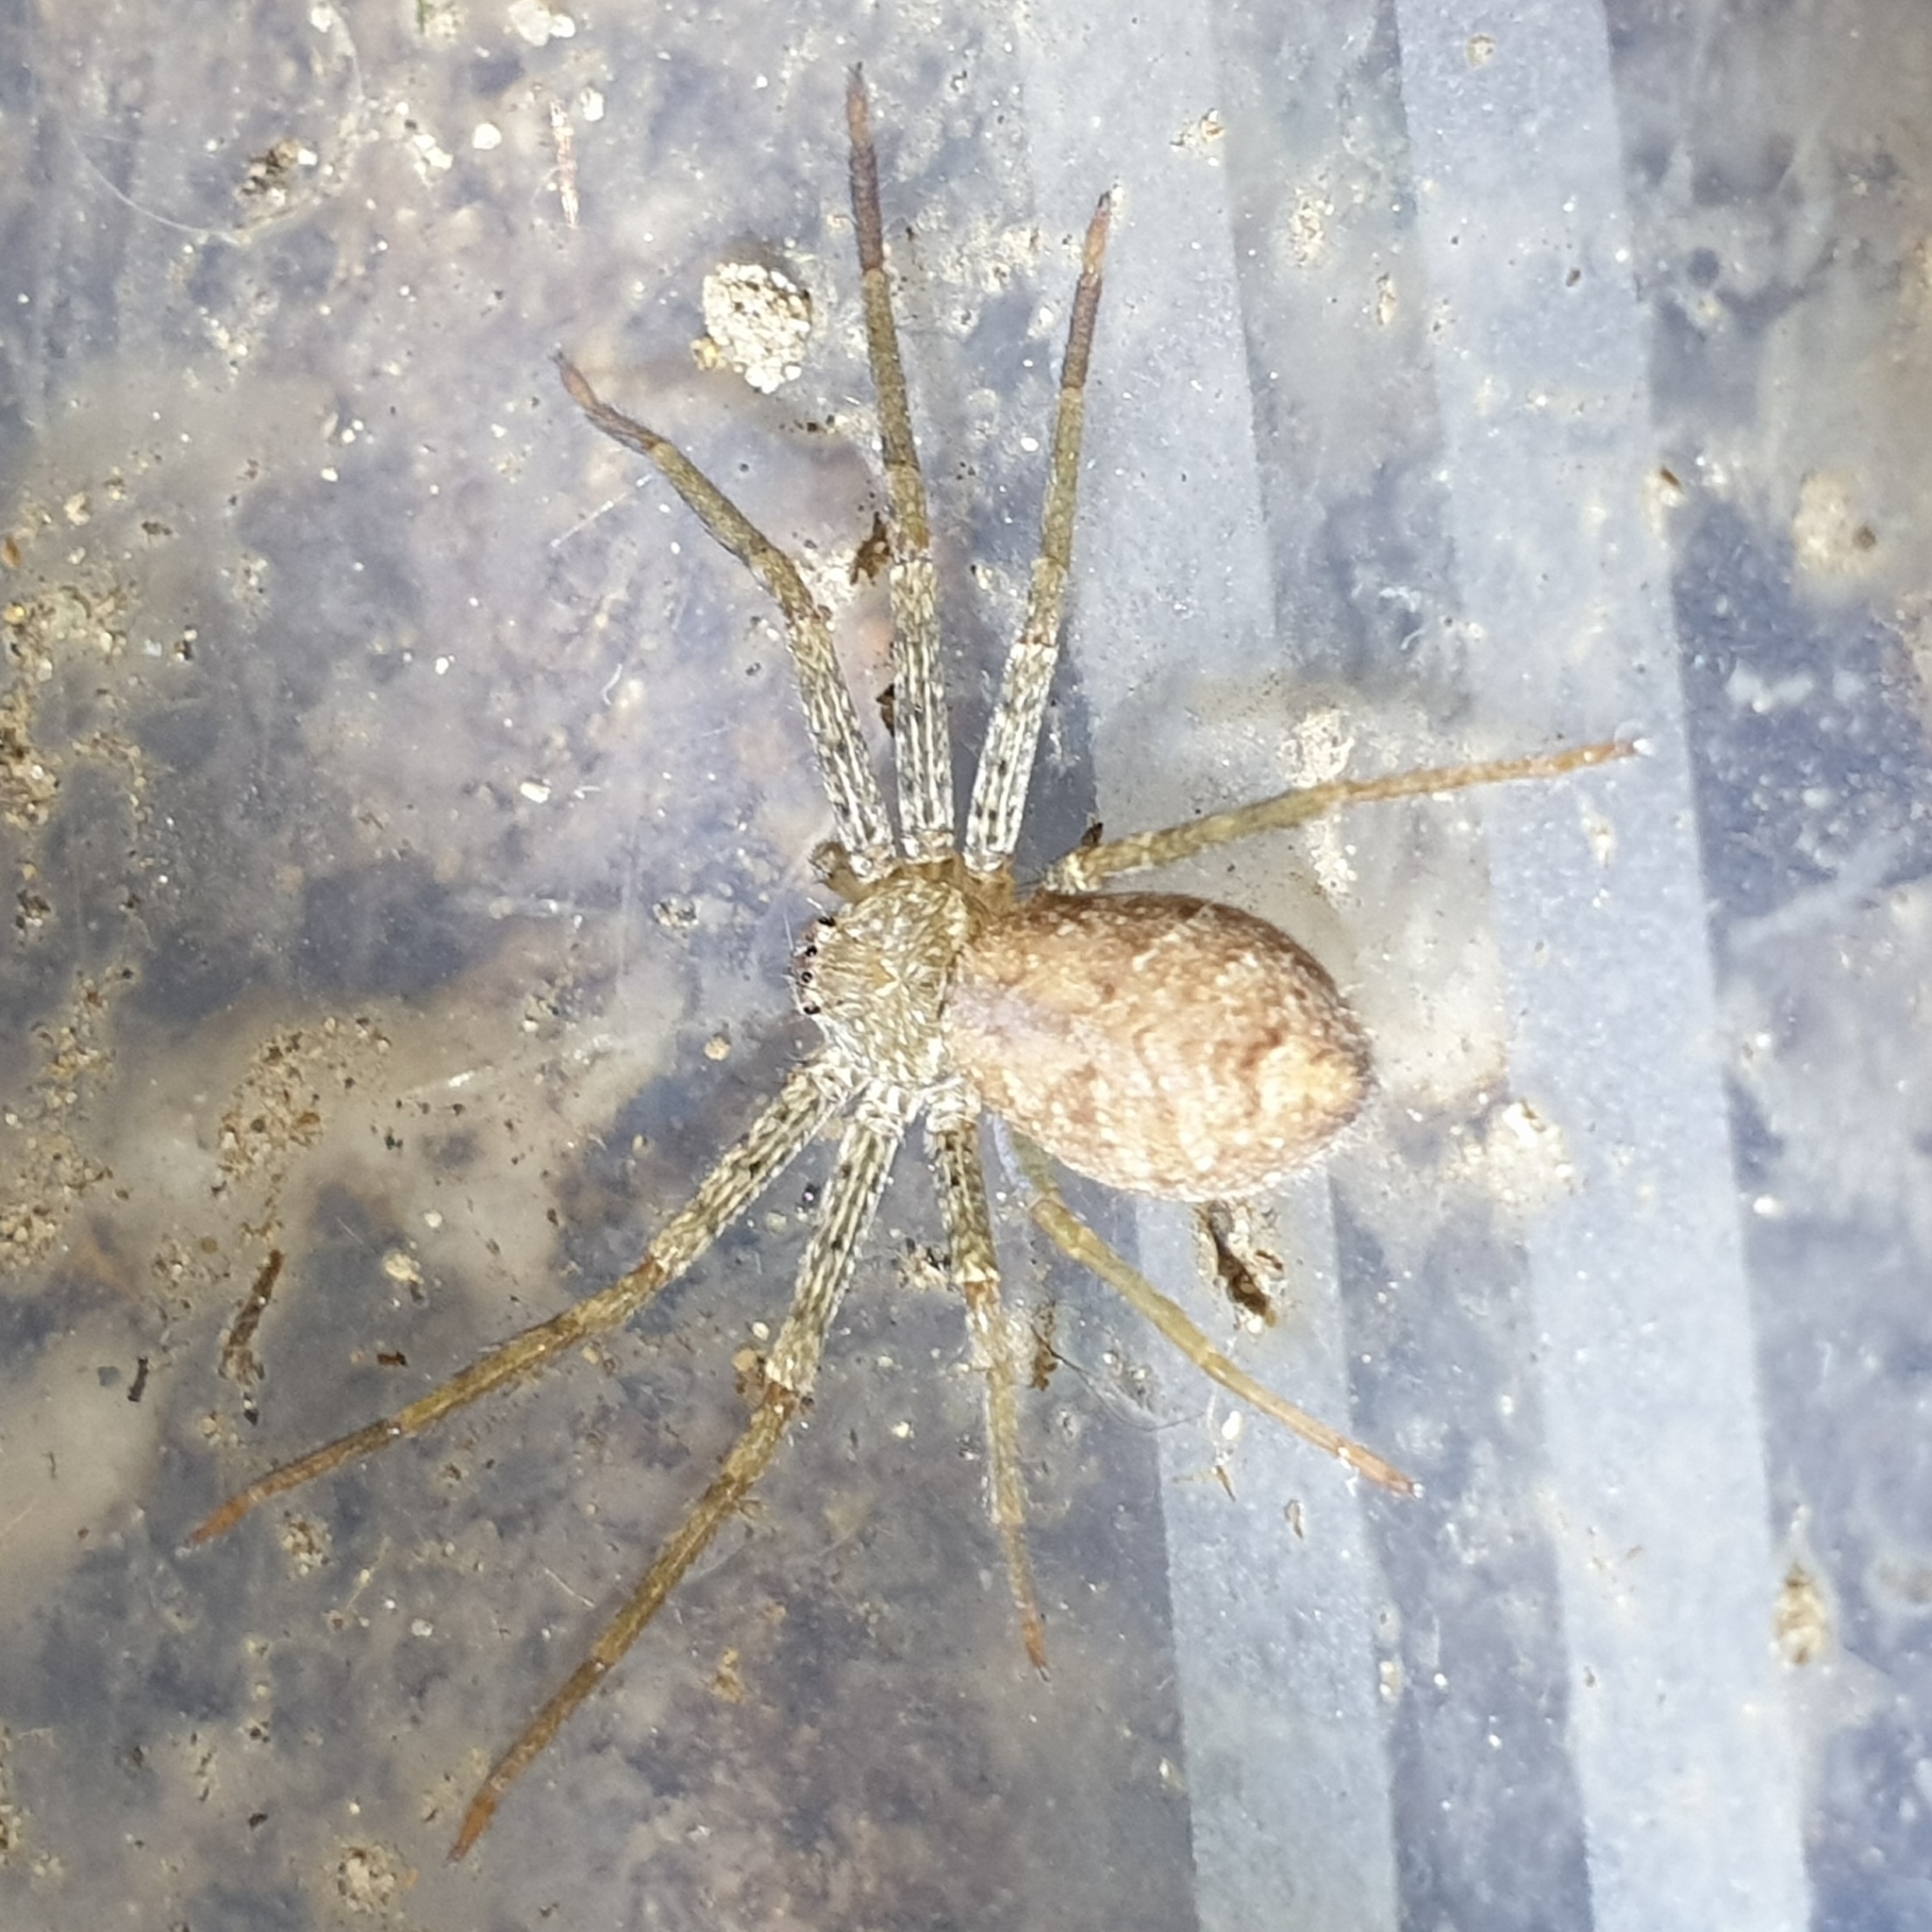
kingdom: Animalia
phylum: Arthropoda
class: Arachnida
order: Araneae
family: Sparassidae
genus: Heteropoda
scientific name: Heteropoda venatoria
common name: Huntsman spider
